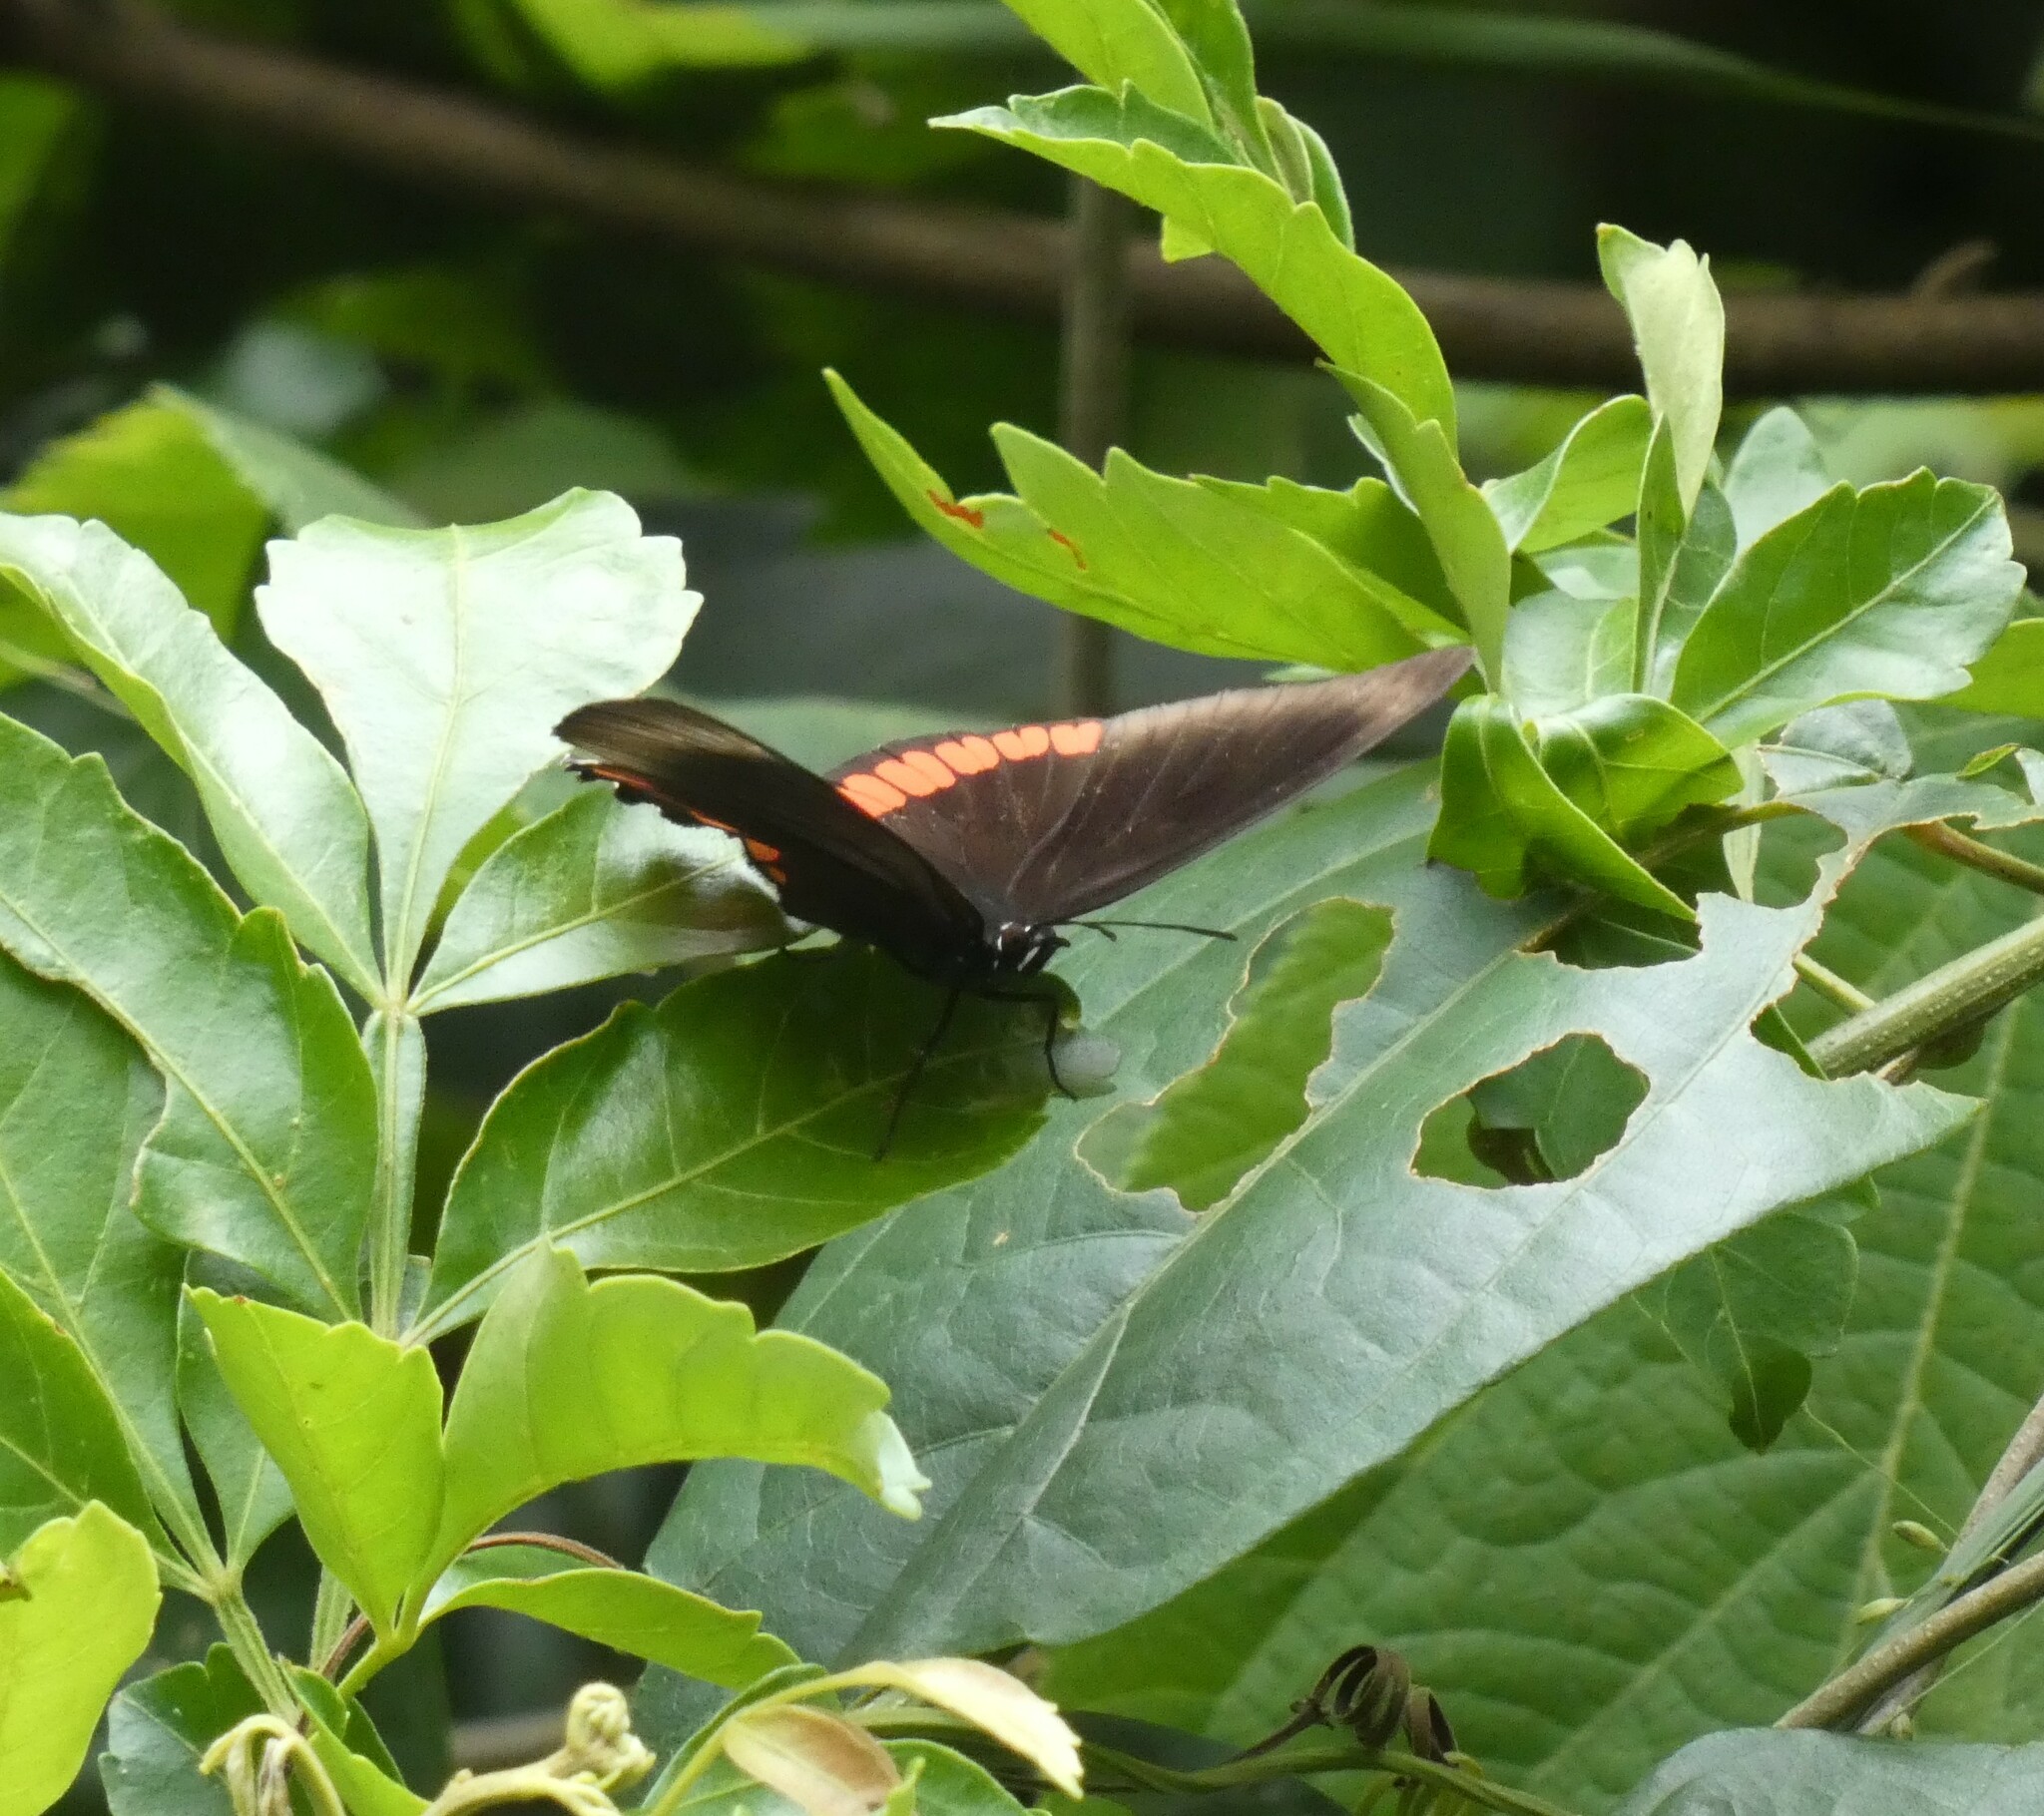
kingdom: Animalia
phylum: Arthropoda
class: Insecta
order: Lepidoptera
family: Sesiidae
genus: Sesia
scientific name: Sesia Biblis hyperia
